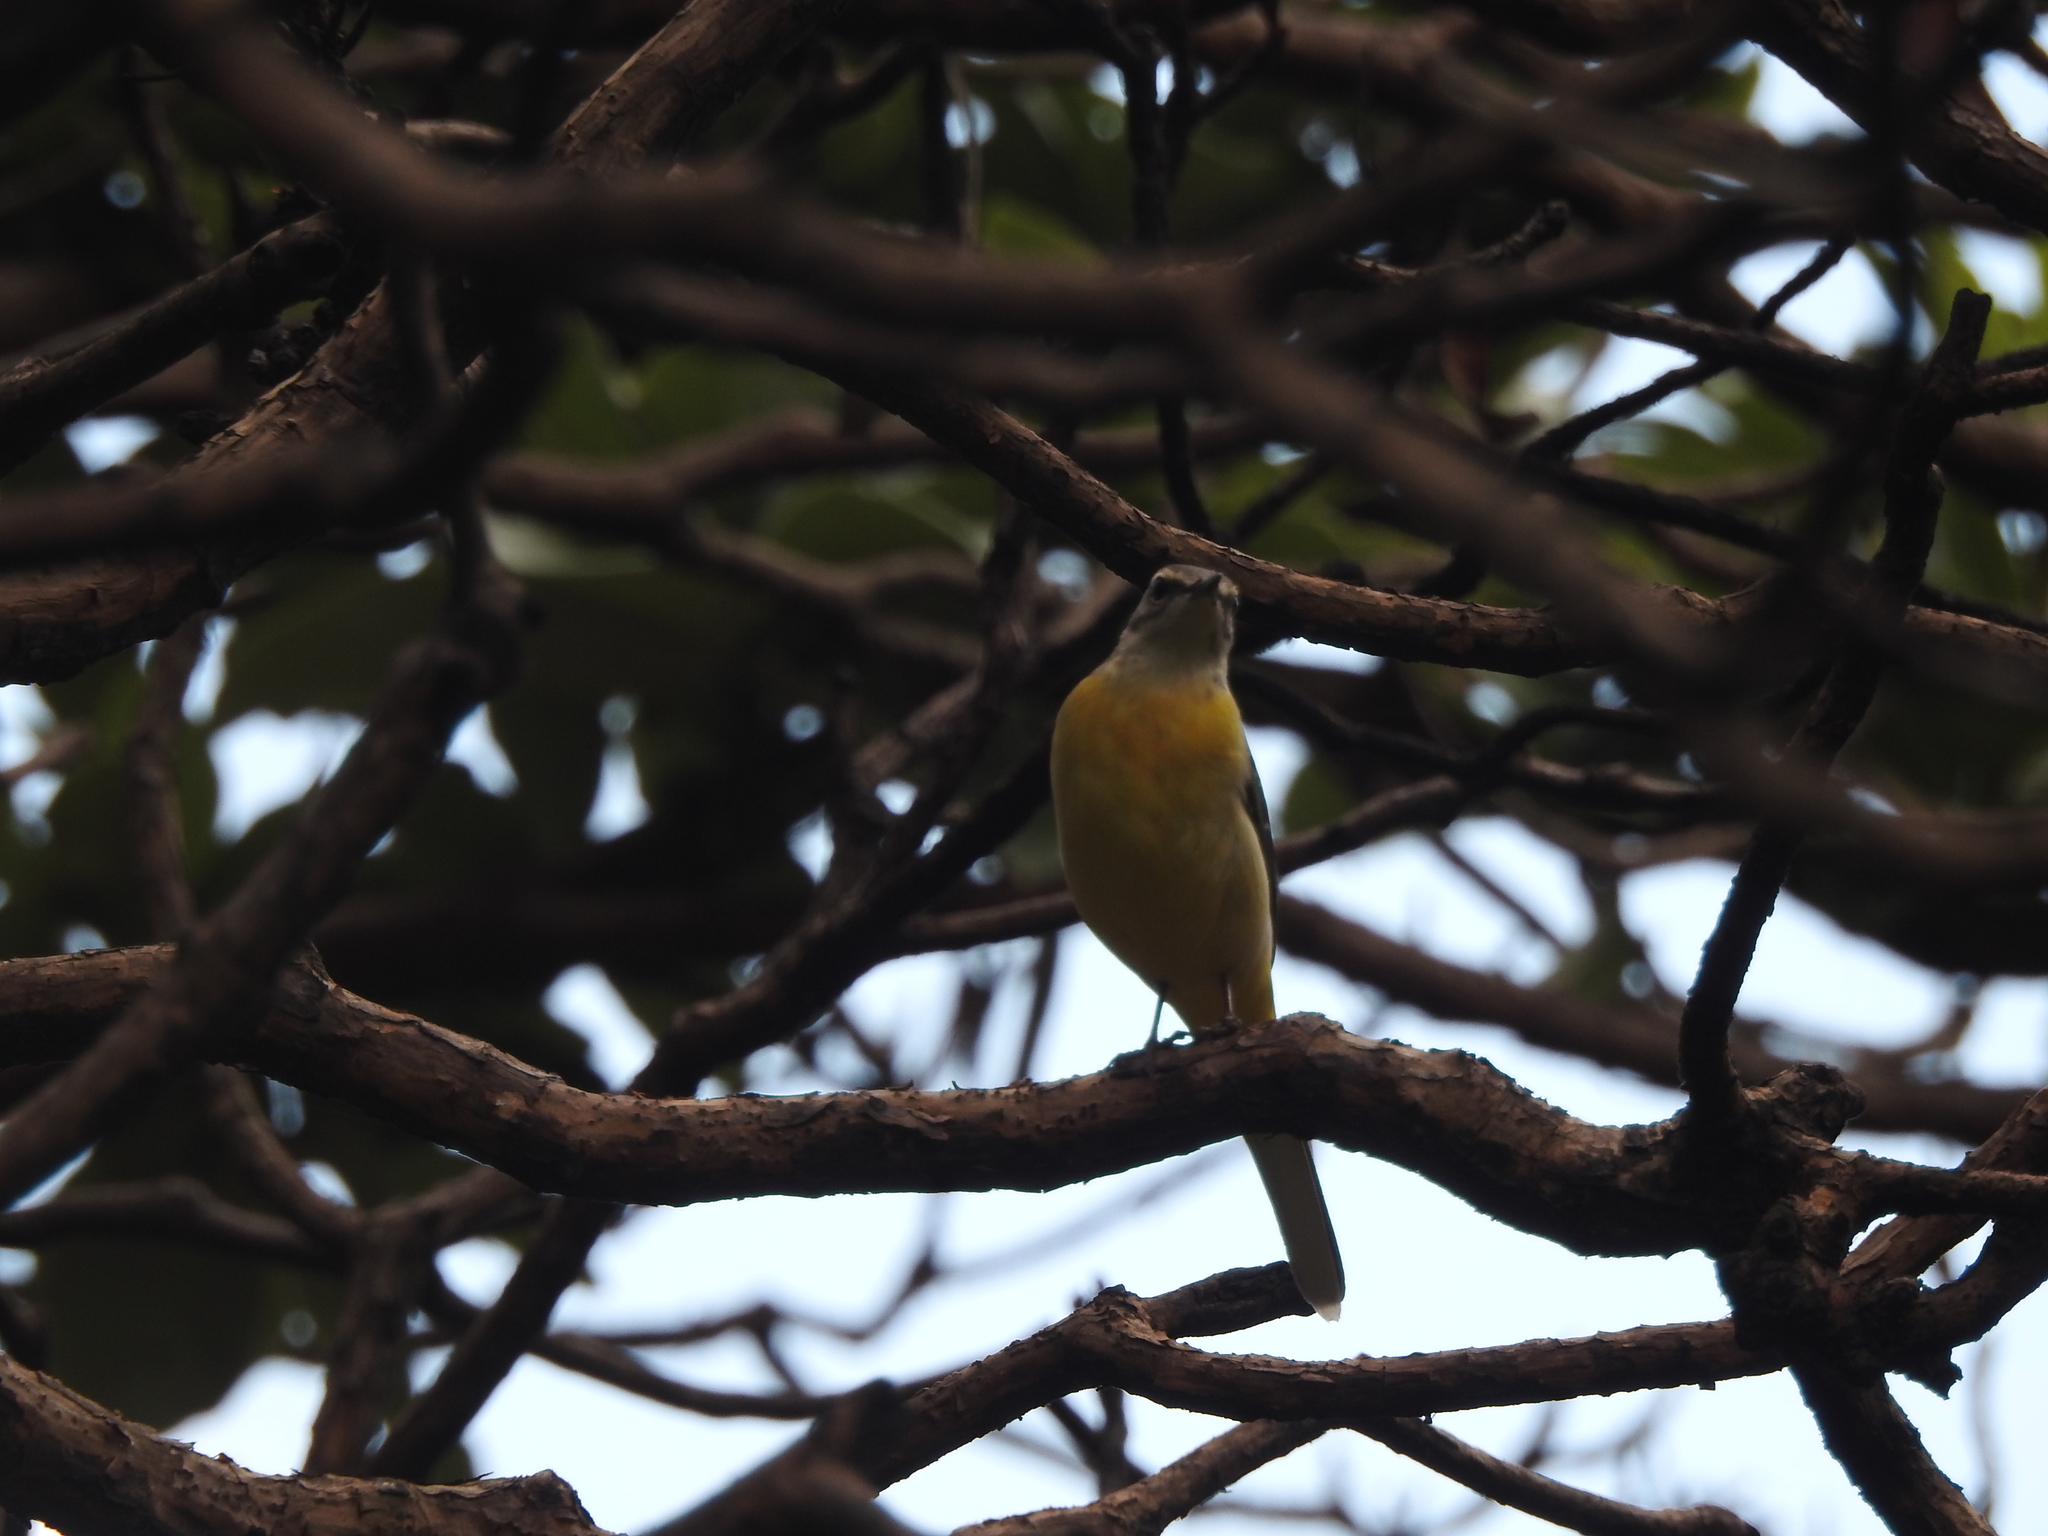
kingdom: Animalia
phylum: Chordata
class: Aves
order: Passeriformes
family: Motacillidae
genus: Motacilla
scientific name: Motacilla cinerea
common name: Grey wagtail
